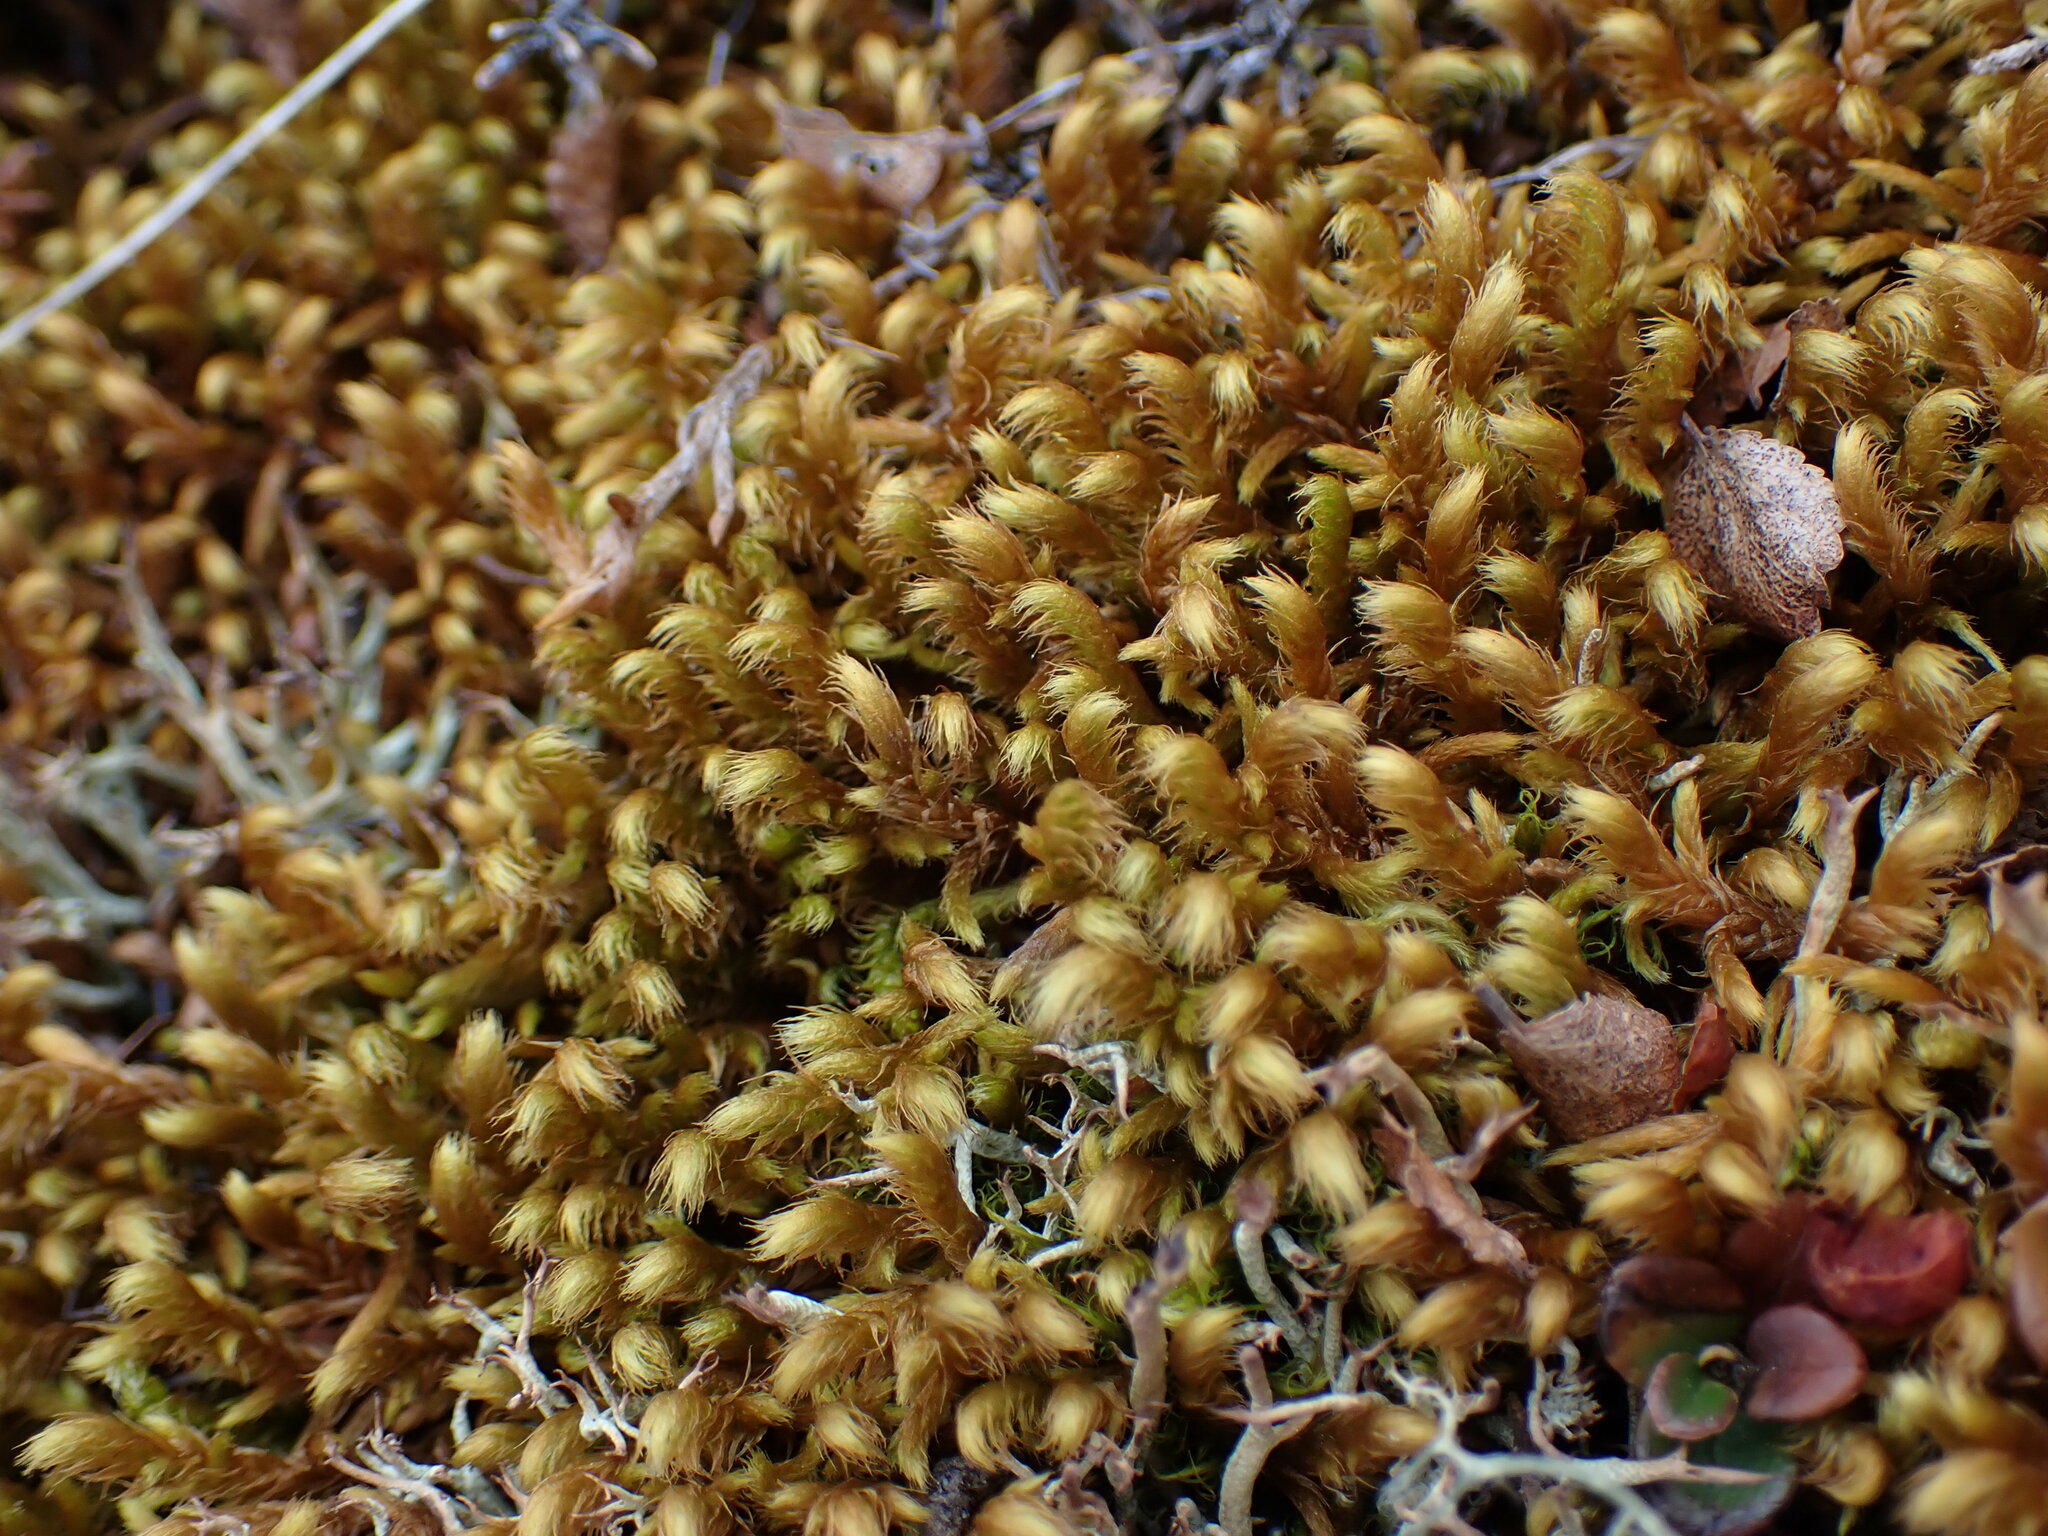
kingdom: Plantae
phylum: Bryophyta
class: Bryopsida
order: Hypnales
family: Rhytidiaceae
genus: Rhytidium
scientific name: Rhytidium rugosum
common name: Wrinkle-leaved moss
